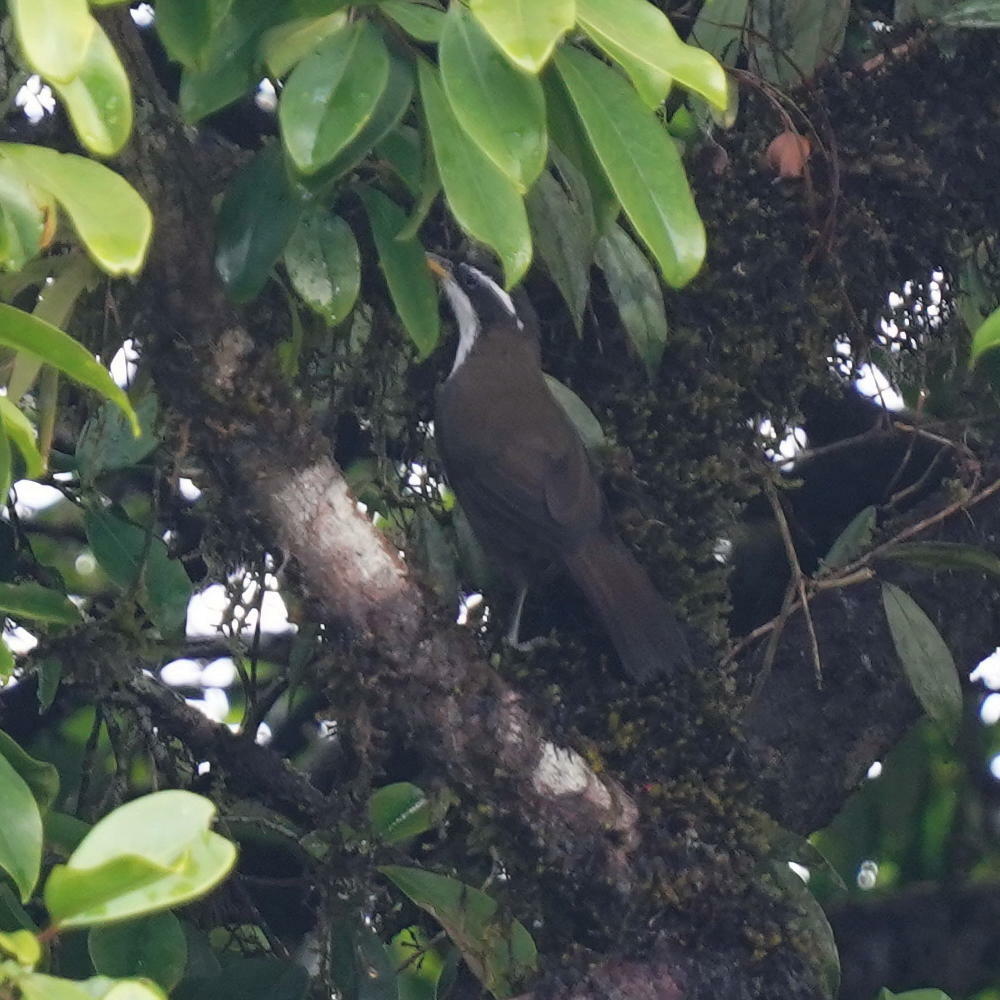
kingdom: Animalia
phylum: Chordata
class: Aves
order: Passeriformes
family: Timaliidae
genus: Pomatorhinus
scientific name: Pomatorhinus horsfieldii
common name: Indian scimitar babbler
